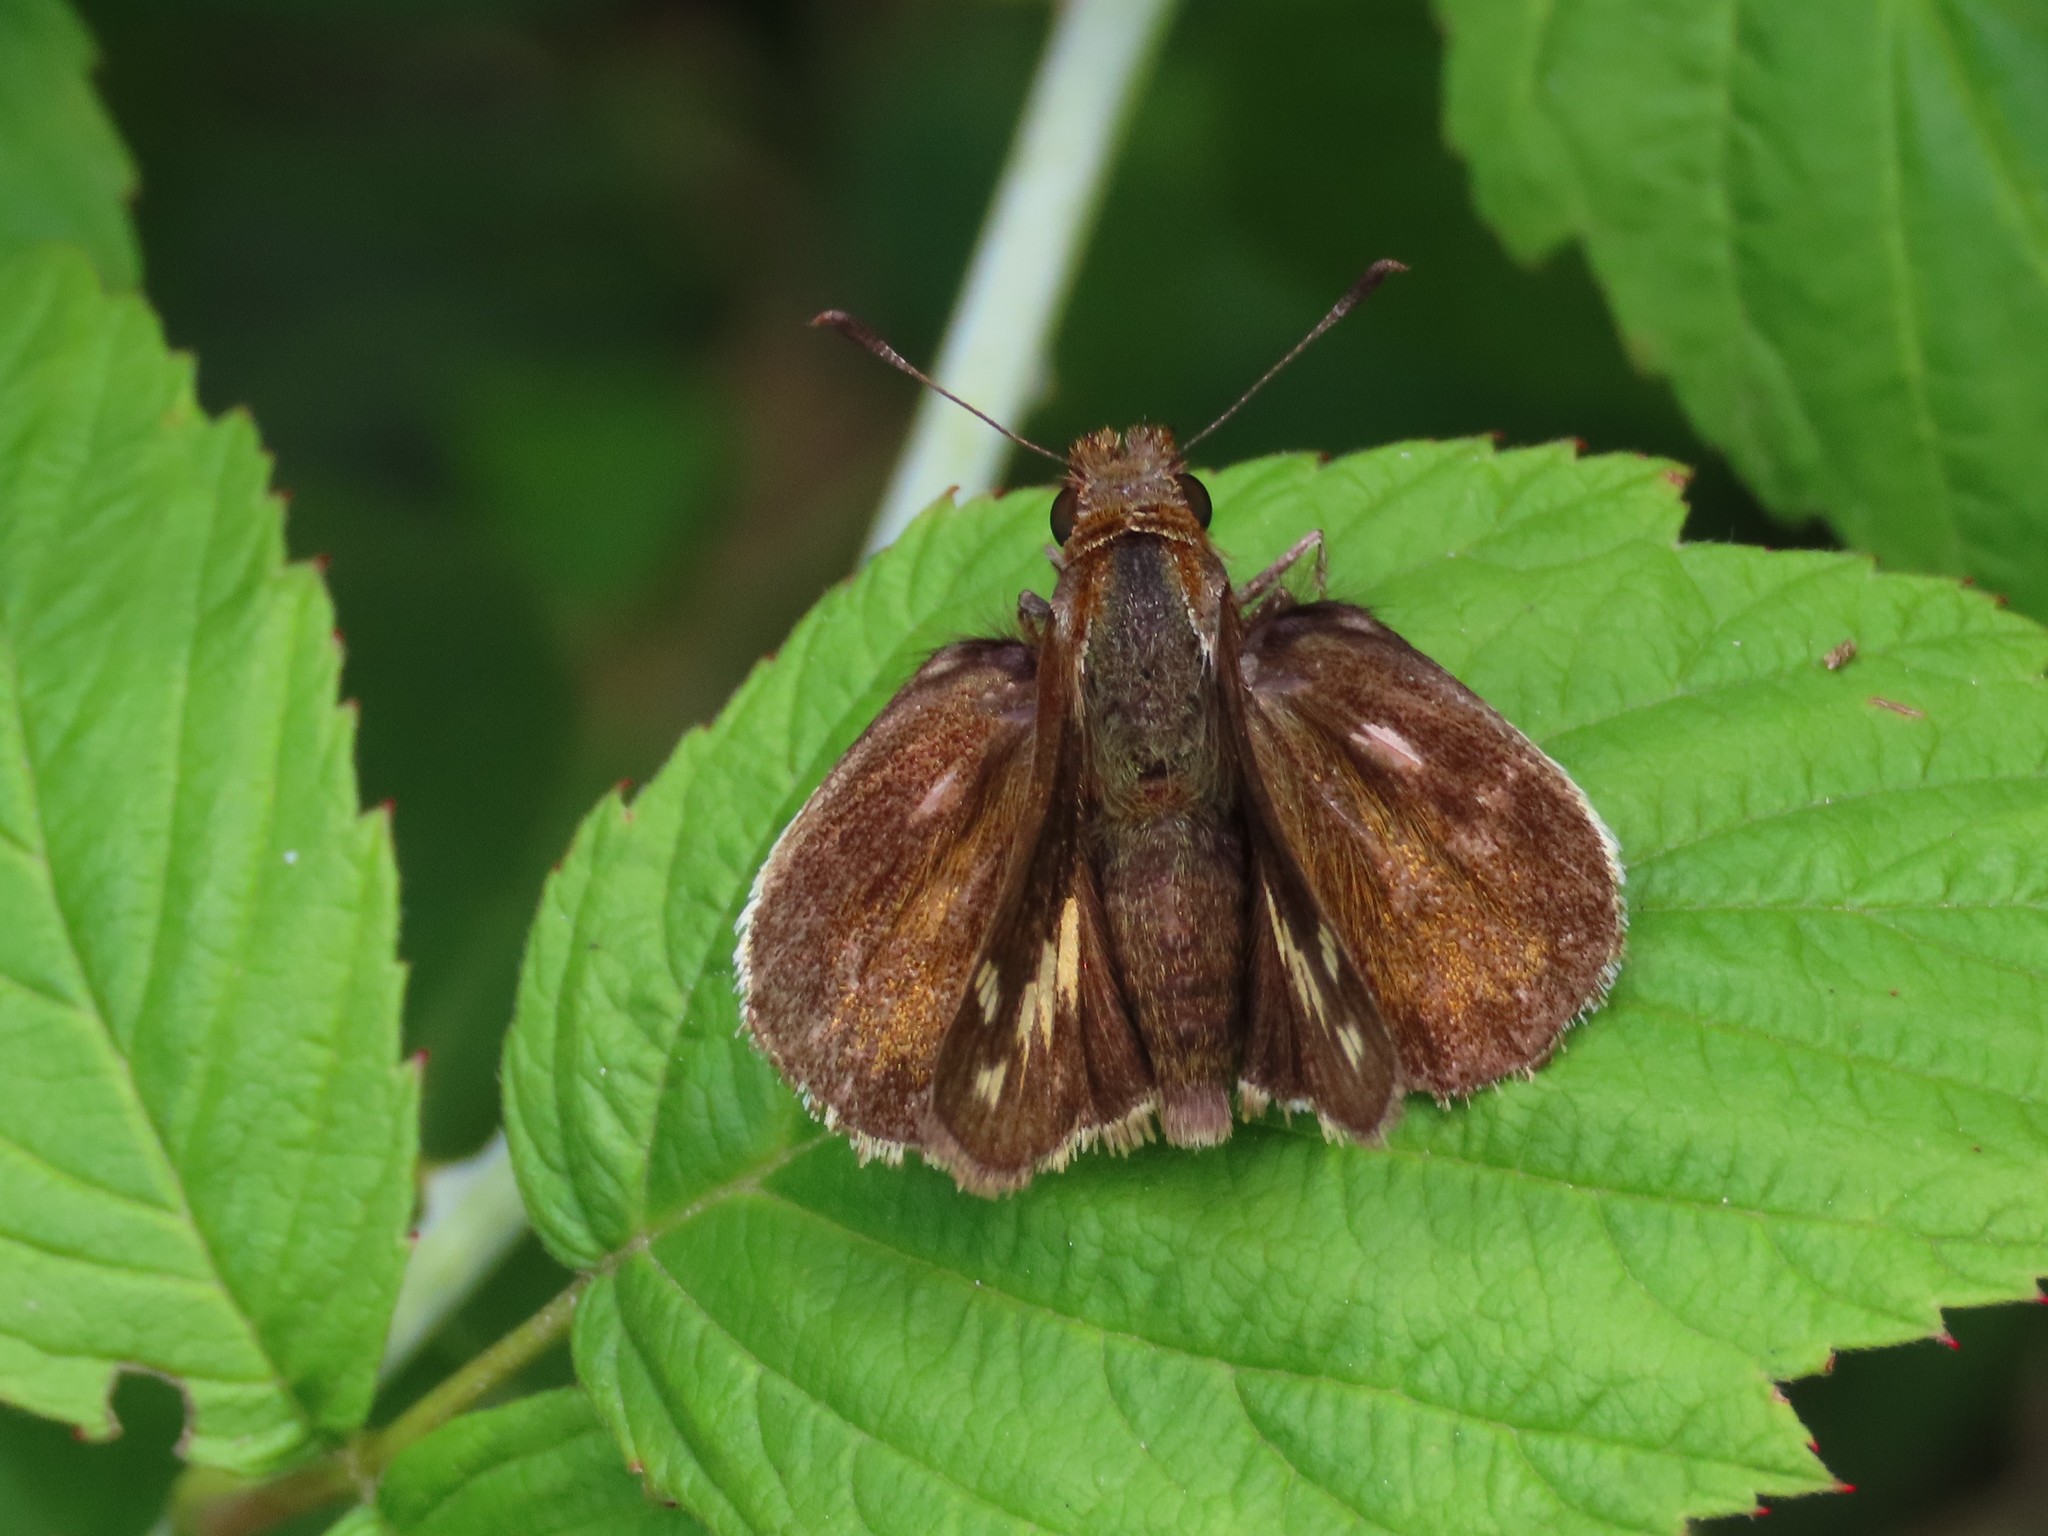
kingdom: Animalia
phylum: Arthropoda
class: Insecta
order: Lepidoptera
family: Hesperiidae
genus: Lon
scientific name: Lon zabulon
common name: Zabulon skipper
